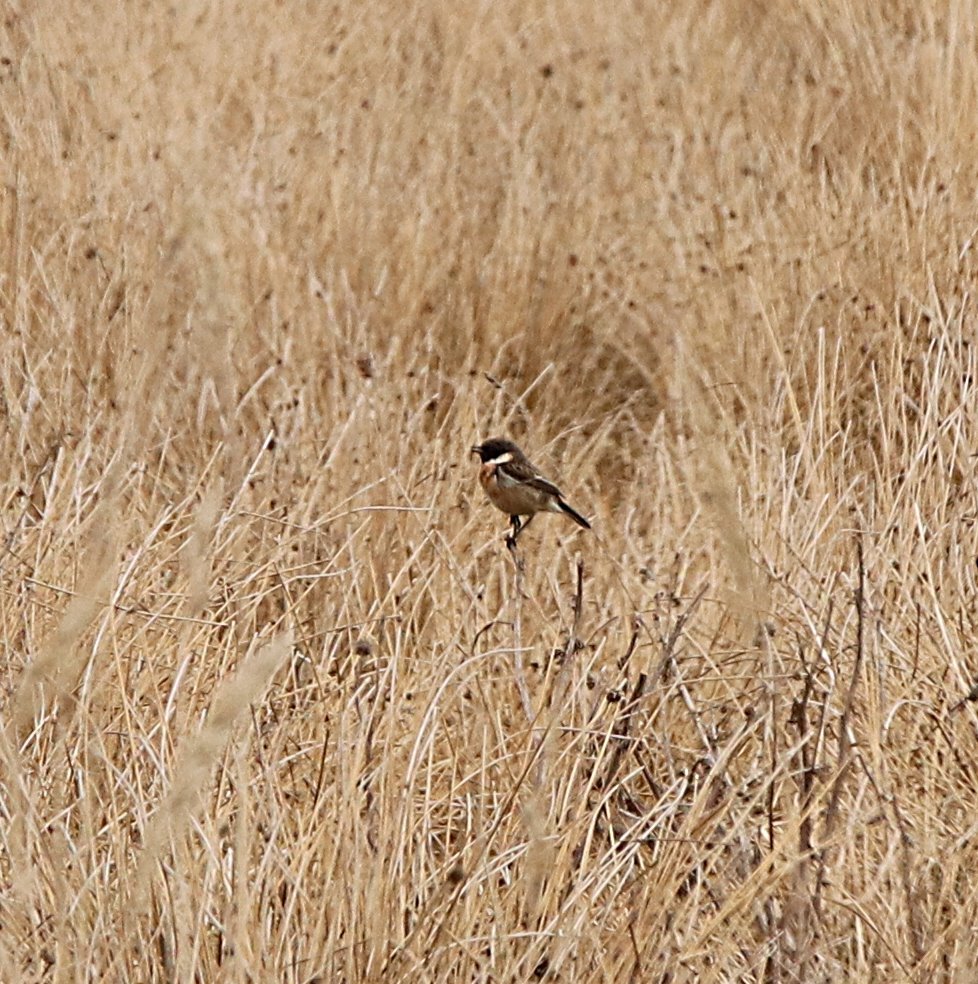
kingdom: Animalia
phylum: Chordata
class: Aves
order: Passeriformes
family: Muscicapidae
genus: Saxicola
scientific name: Saxicola rubicola
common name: European stonechat
